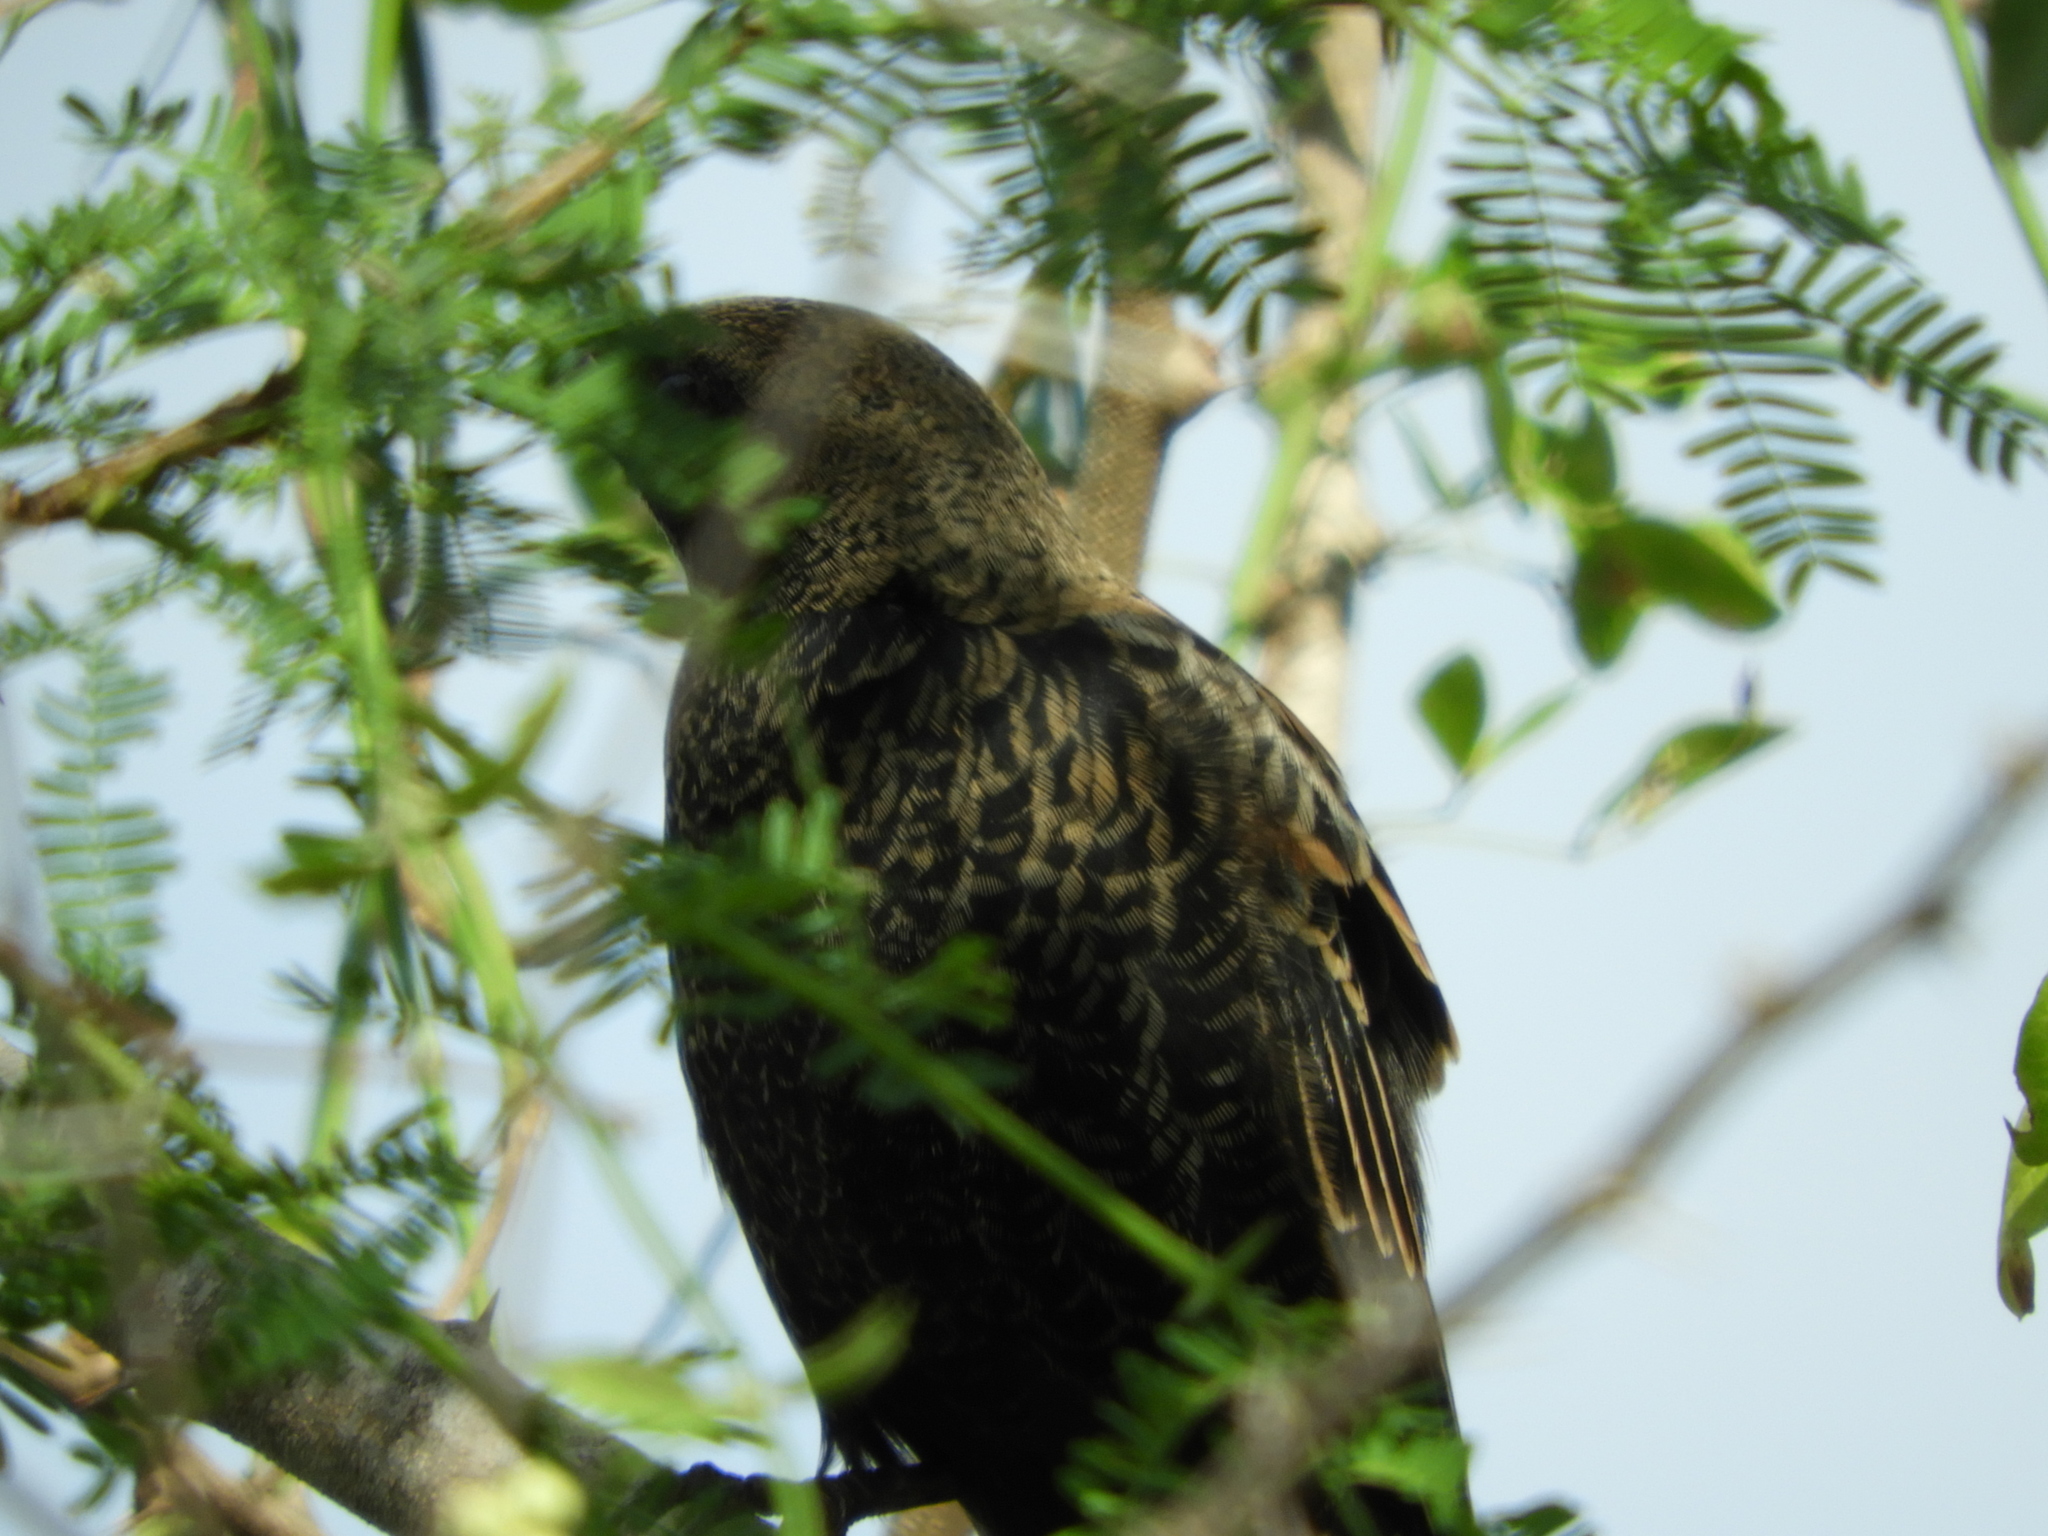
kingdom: Animalia
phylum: Chordata
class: Aves
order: Passeriformes
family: Icteridae
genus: Icterus
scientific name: Icterus spurius
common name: Orchard oriole
